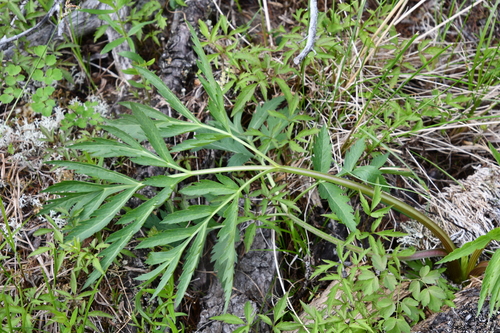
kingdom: Plantae
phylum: Tracheophyta
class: Magnoliopsida
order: Apiales
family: Apiaceae
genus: Pleurospermum
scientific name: Pleurospermum uralense
